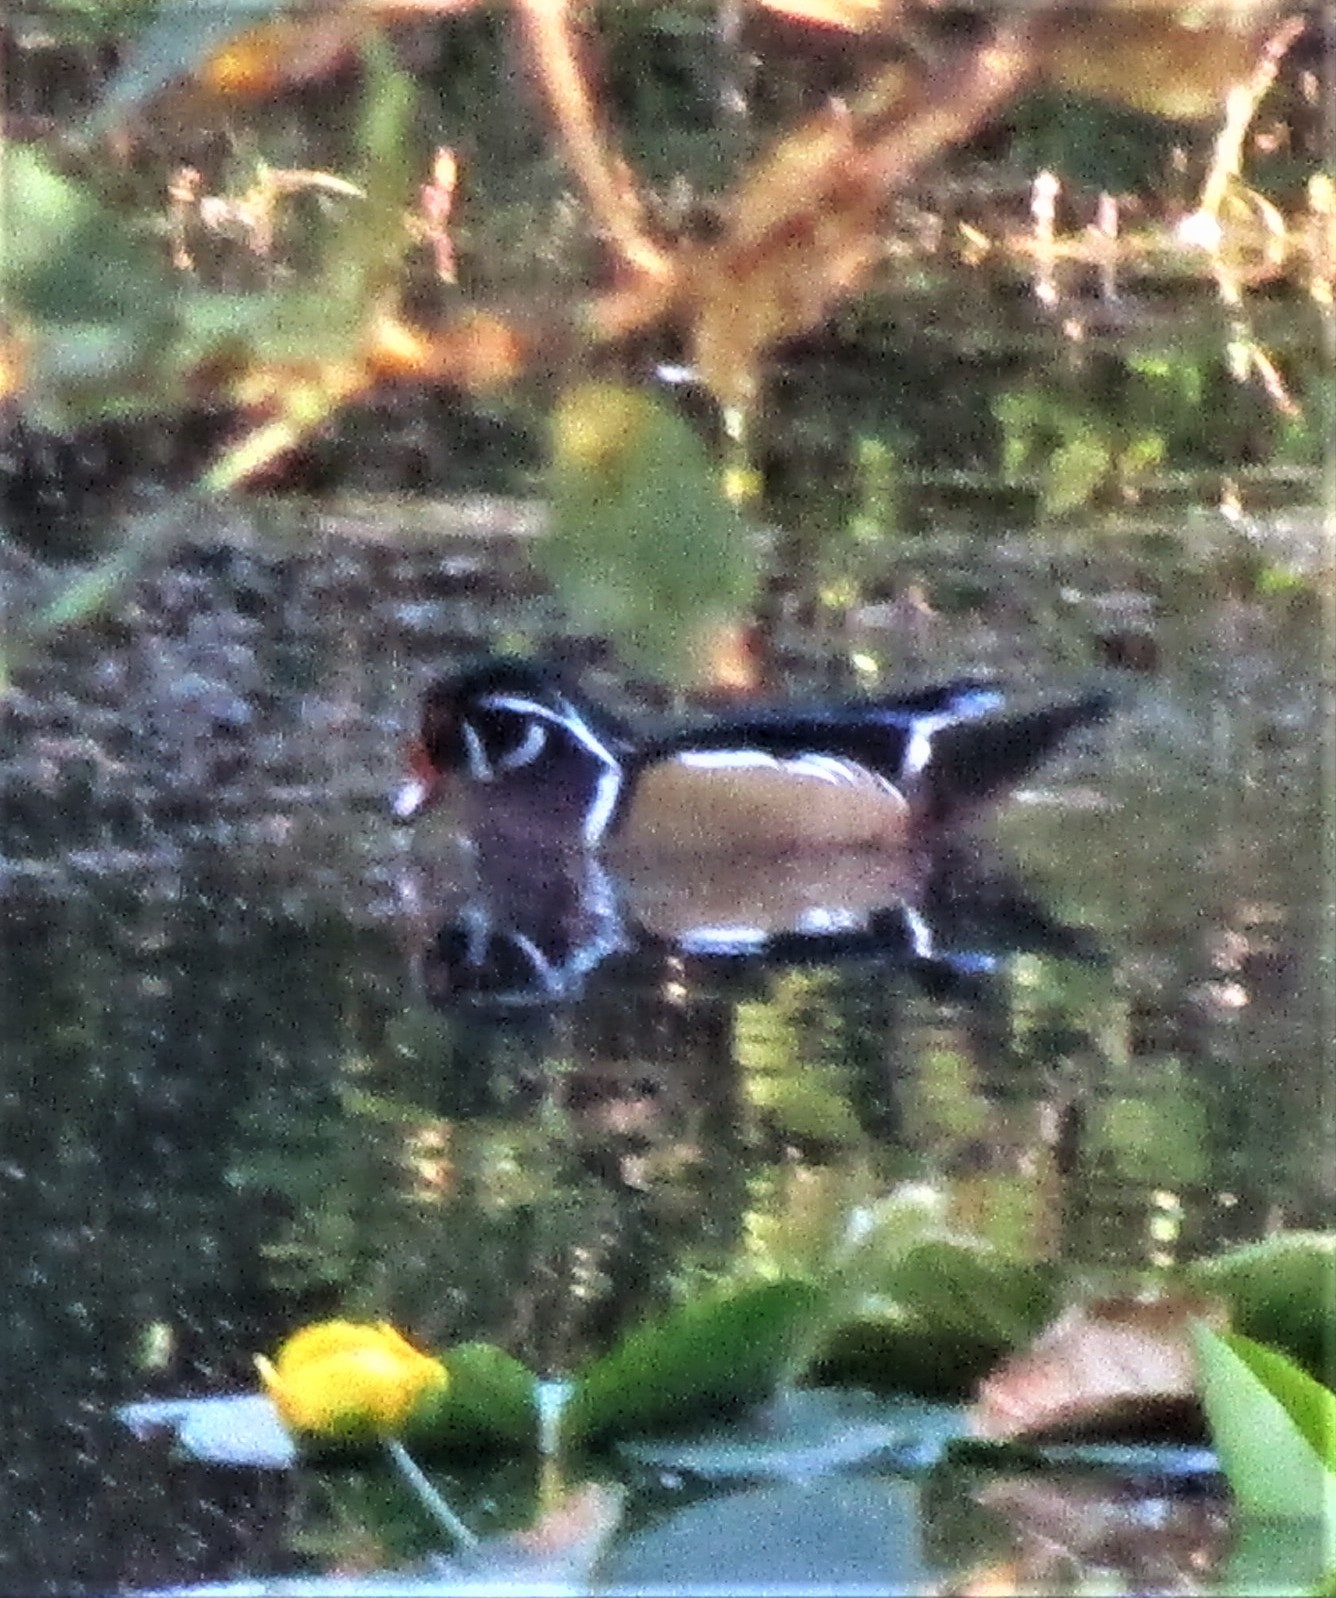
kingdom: Animalia
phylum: Chordata
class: Aves
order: Anseriformes
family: Anatidae
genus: Aix
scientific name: Aix sponsa
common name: Wood duck
